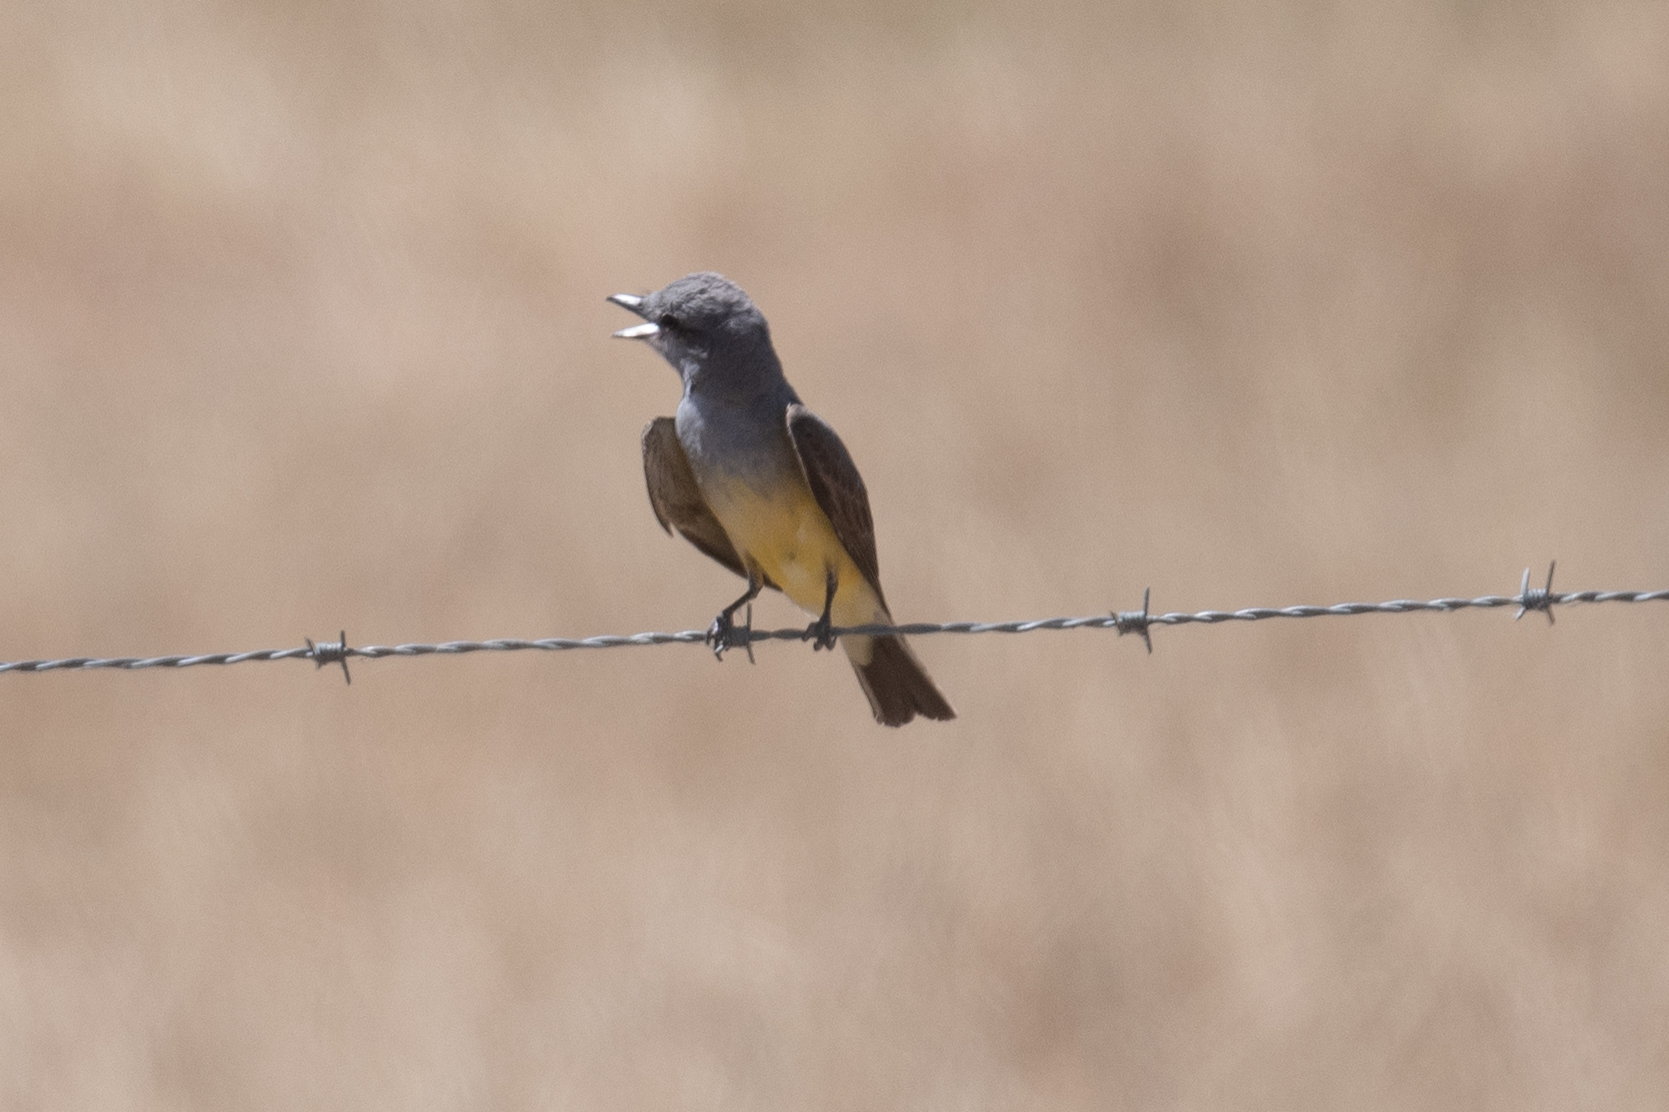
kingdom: Animalia
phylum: Chordata
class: Aves
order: Passeriformes
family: Tyrannidae
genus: Tyrannus
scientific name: Tyrannus verticalis
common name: Western kingbird
